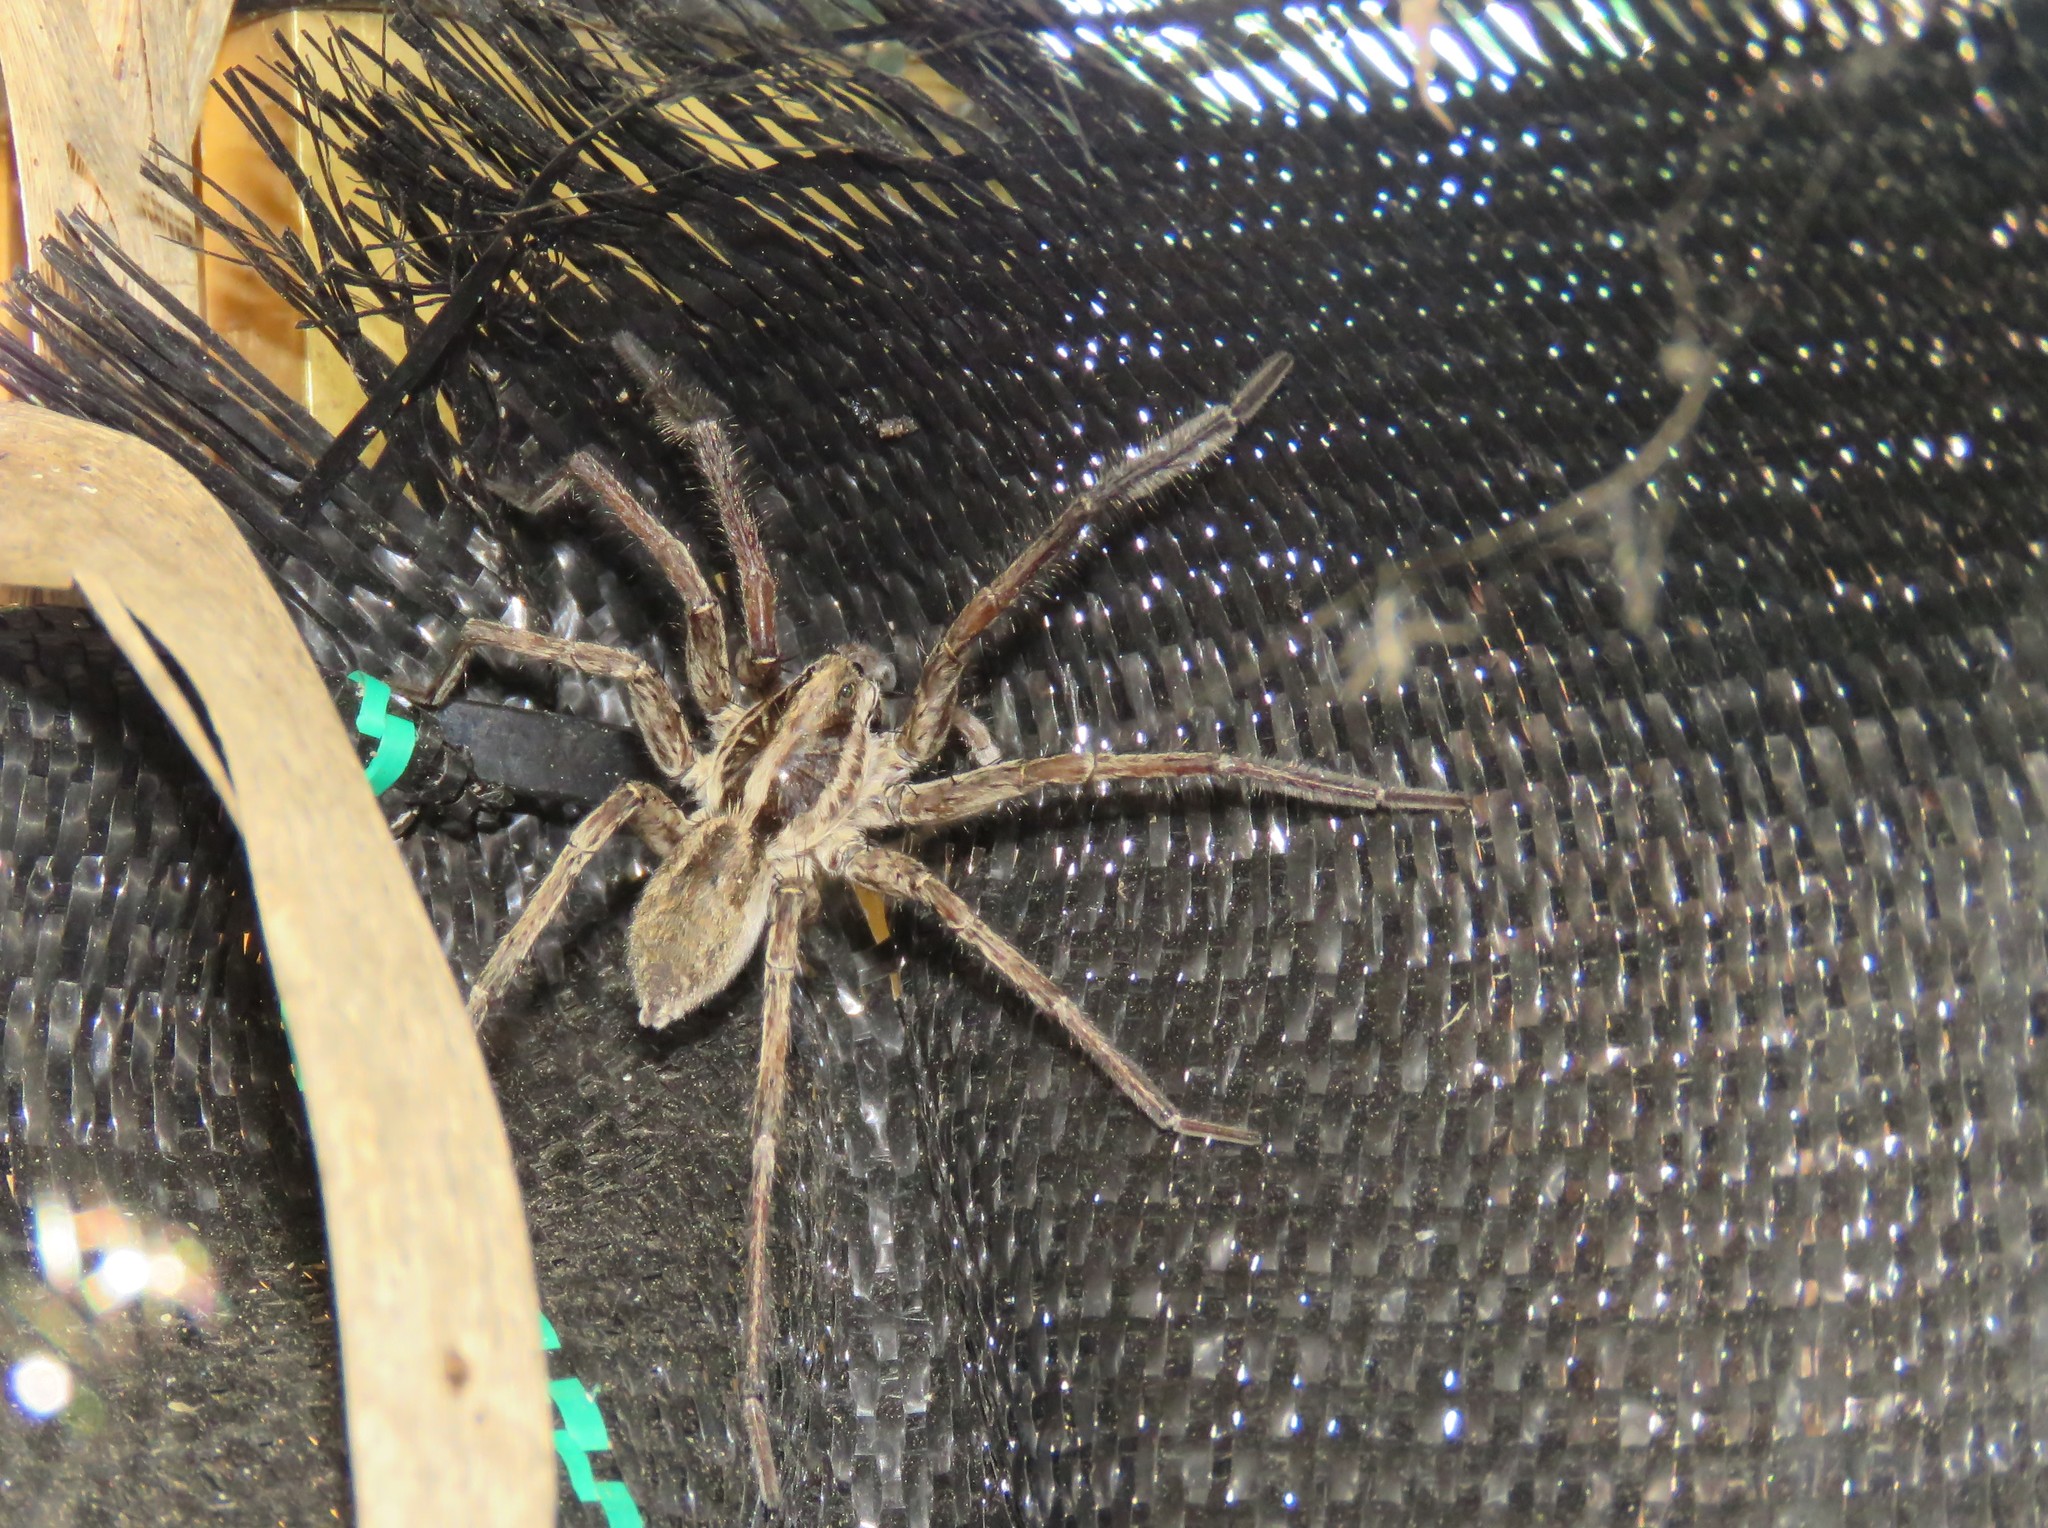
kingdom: Animalia
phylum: Arthropoda
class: Arachnida
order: Araneae
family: Lycosidae
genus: Hogna
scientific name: Hogna radiata
